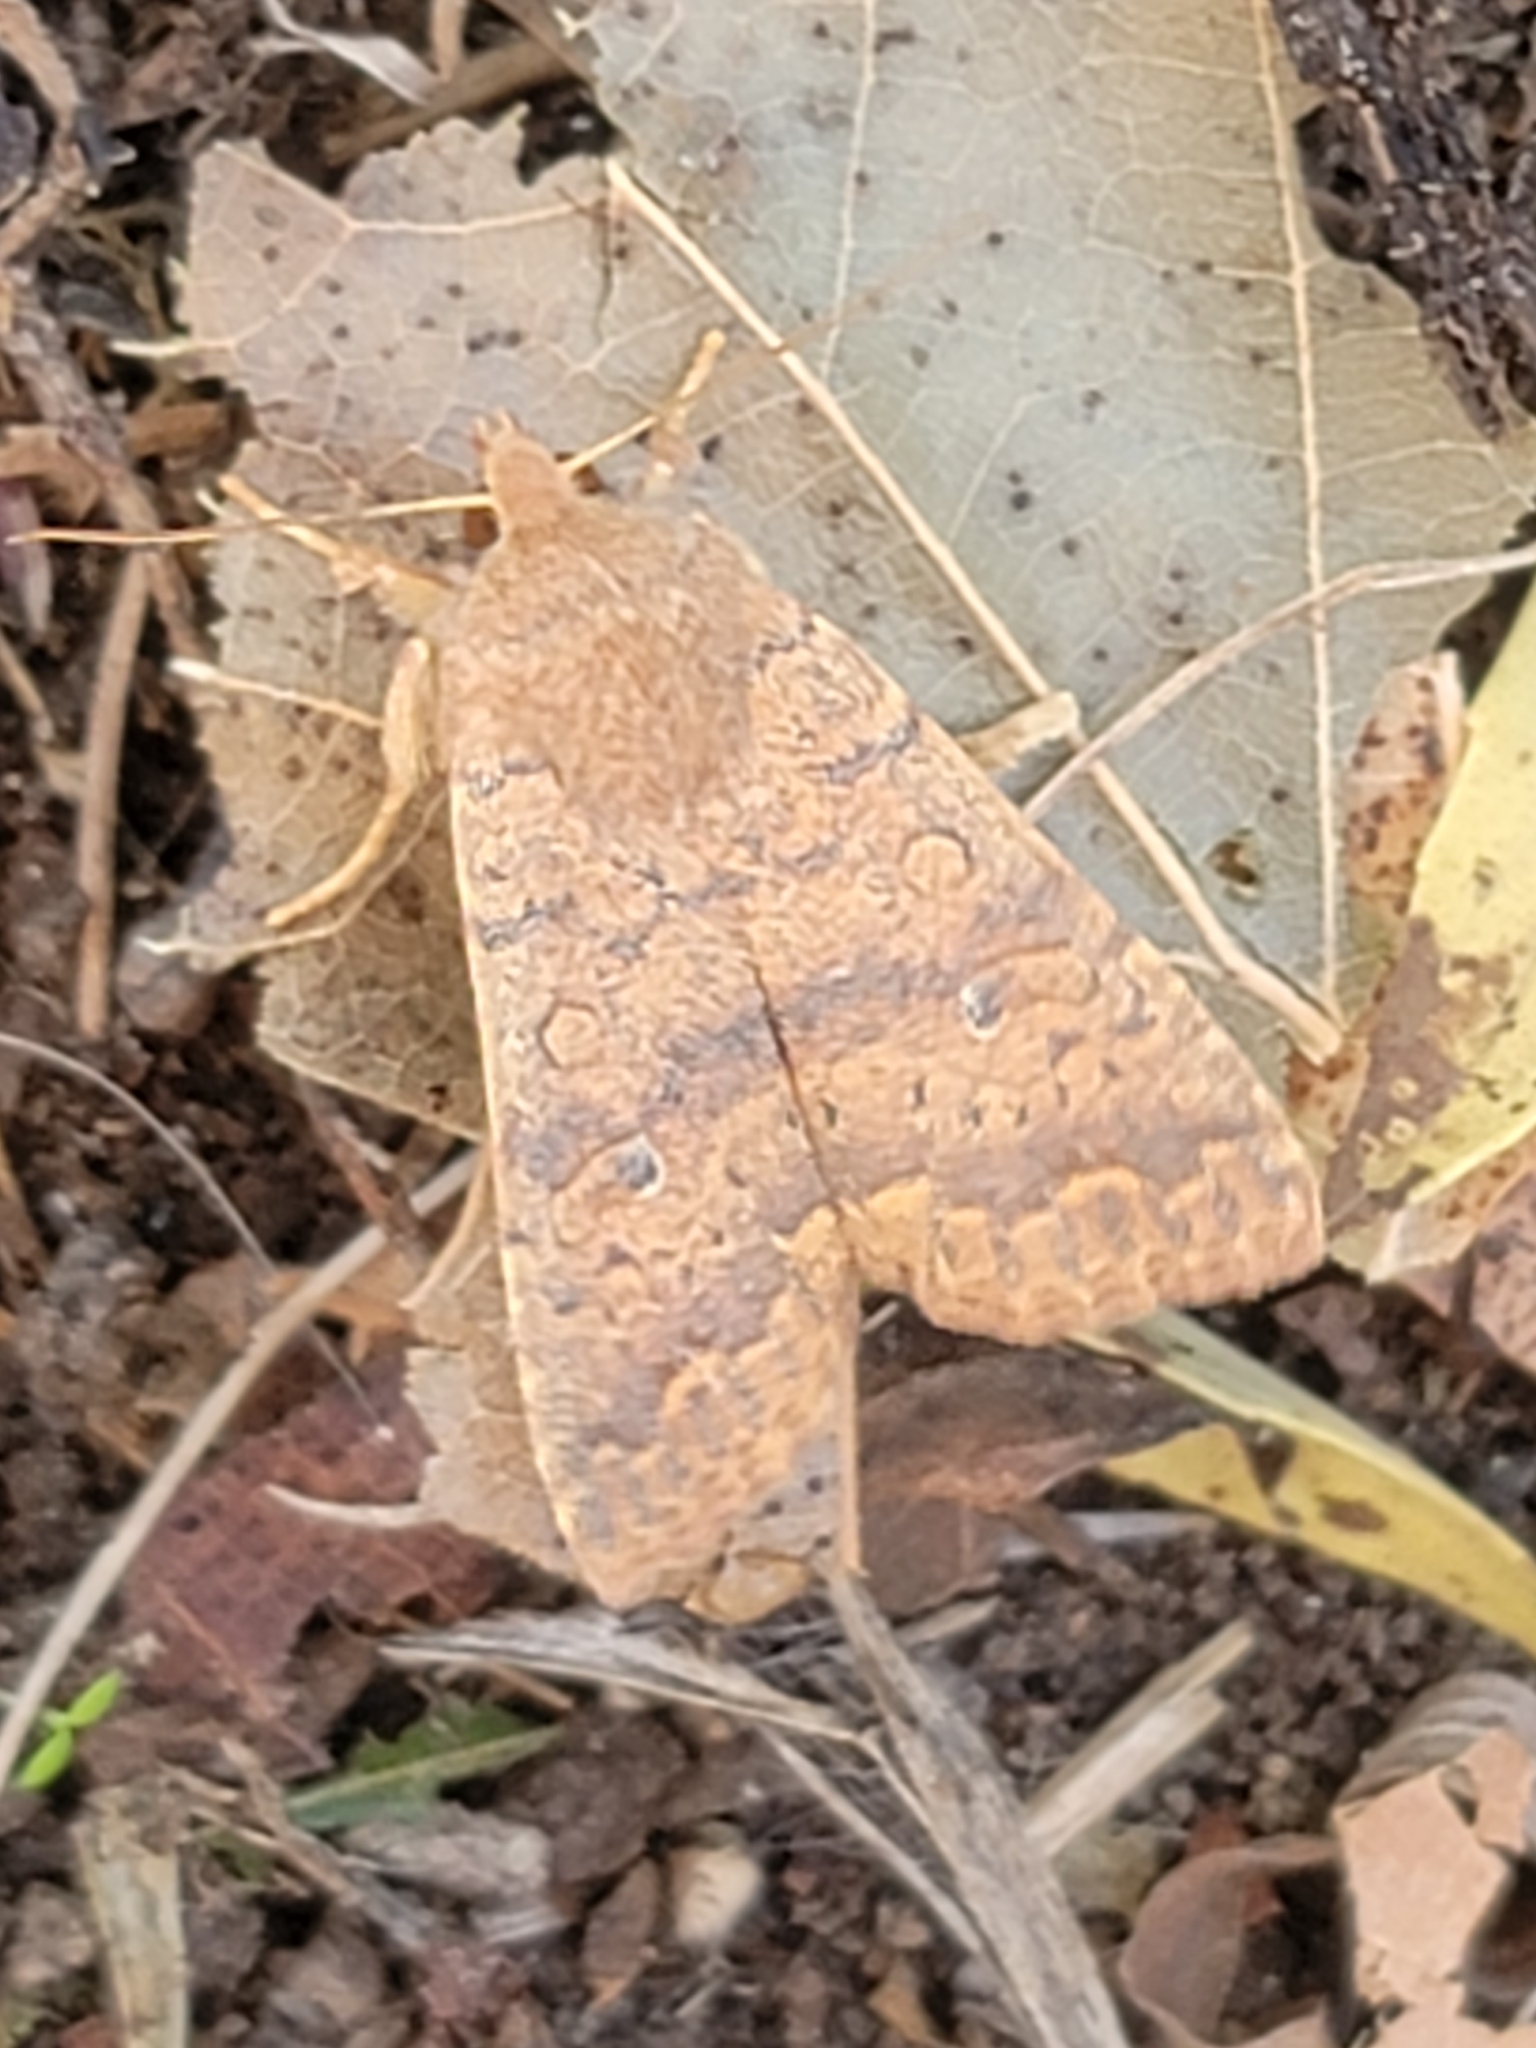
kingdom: Animalia
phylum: Arthropoda
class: Insecta
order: Lepidoptera
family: Noctuidae
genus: Agrochola
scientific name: Agrochola bicolorago
